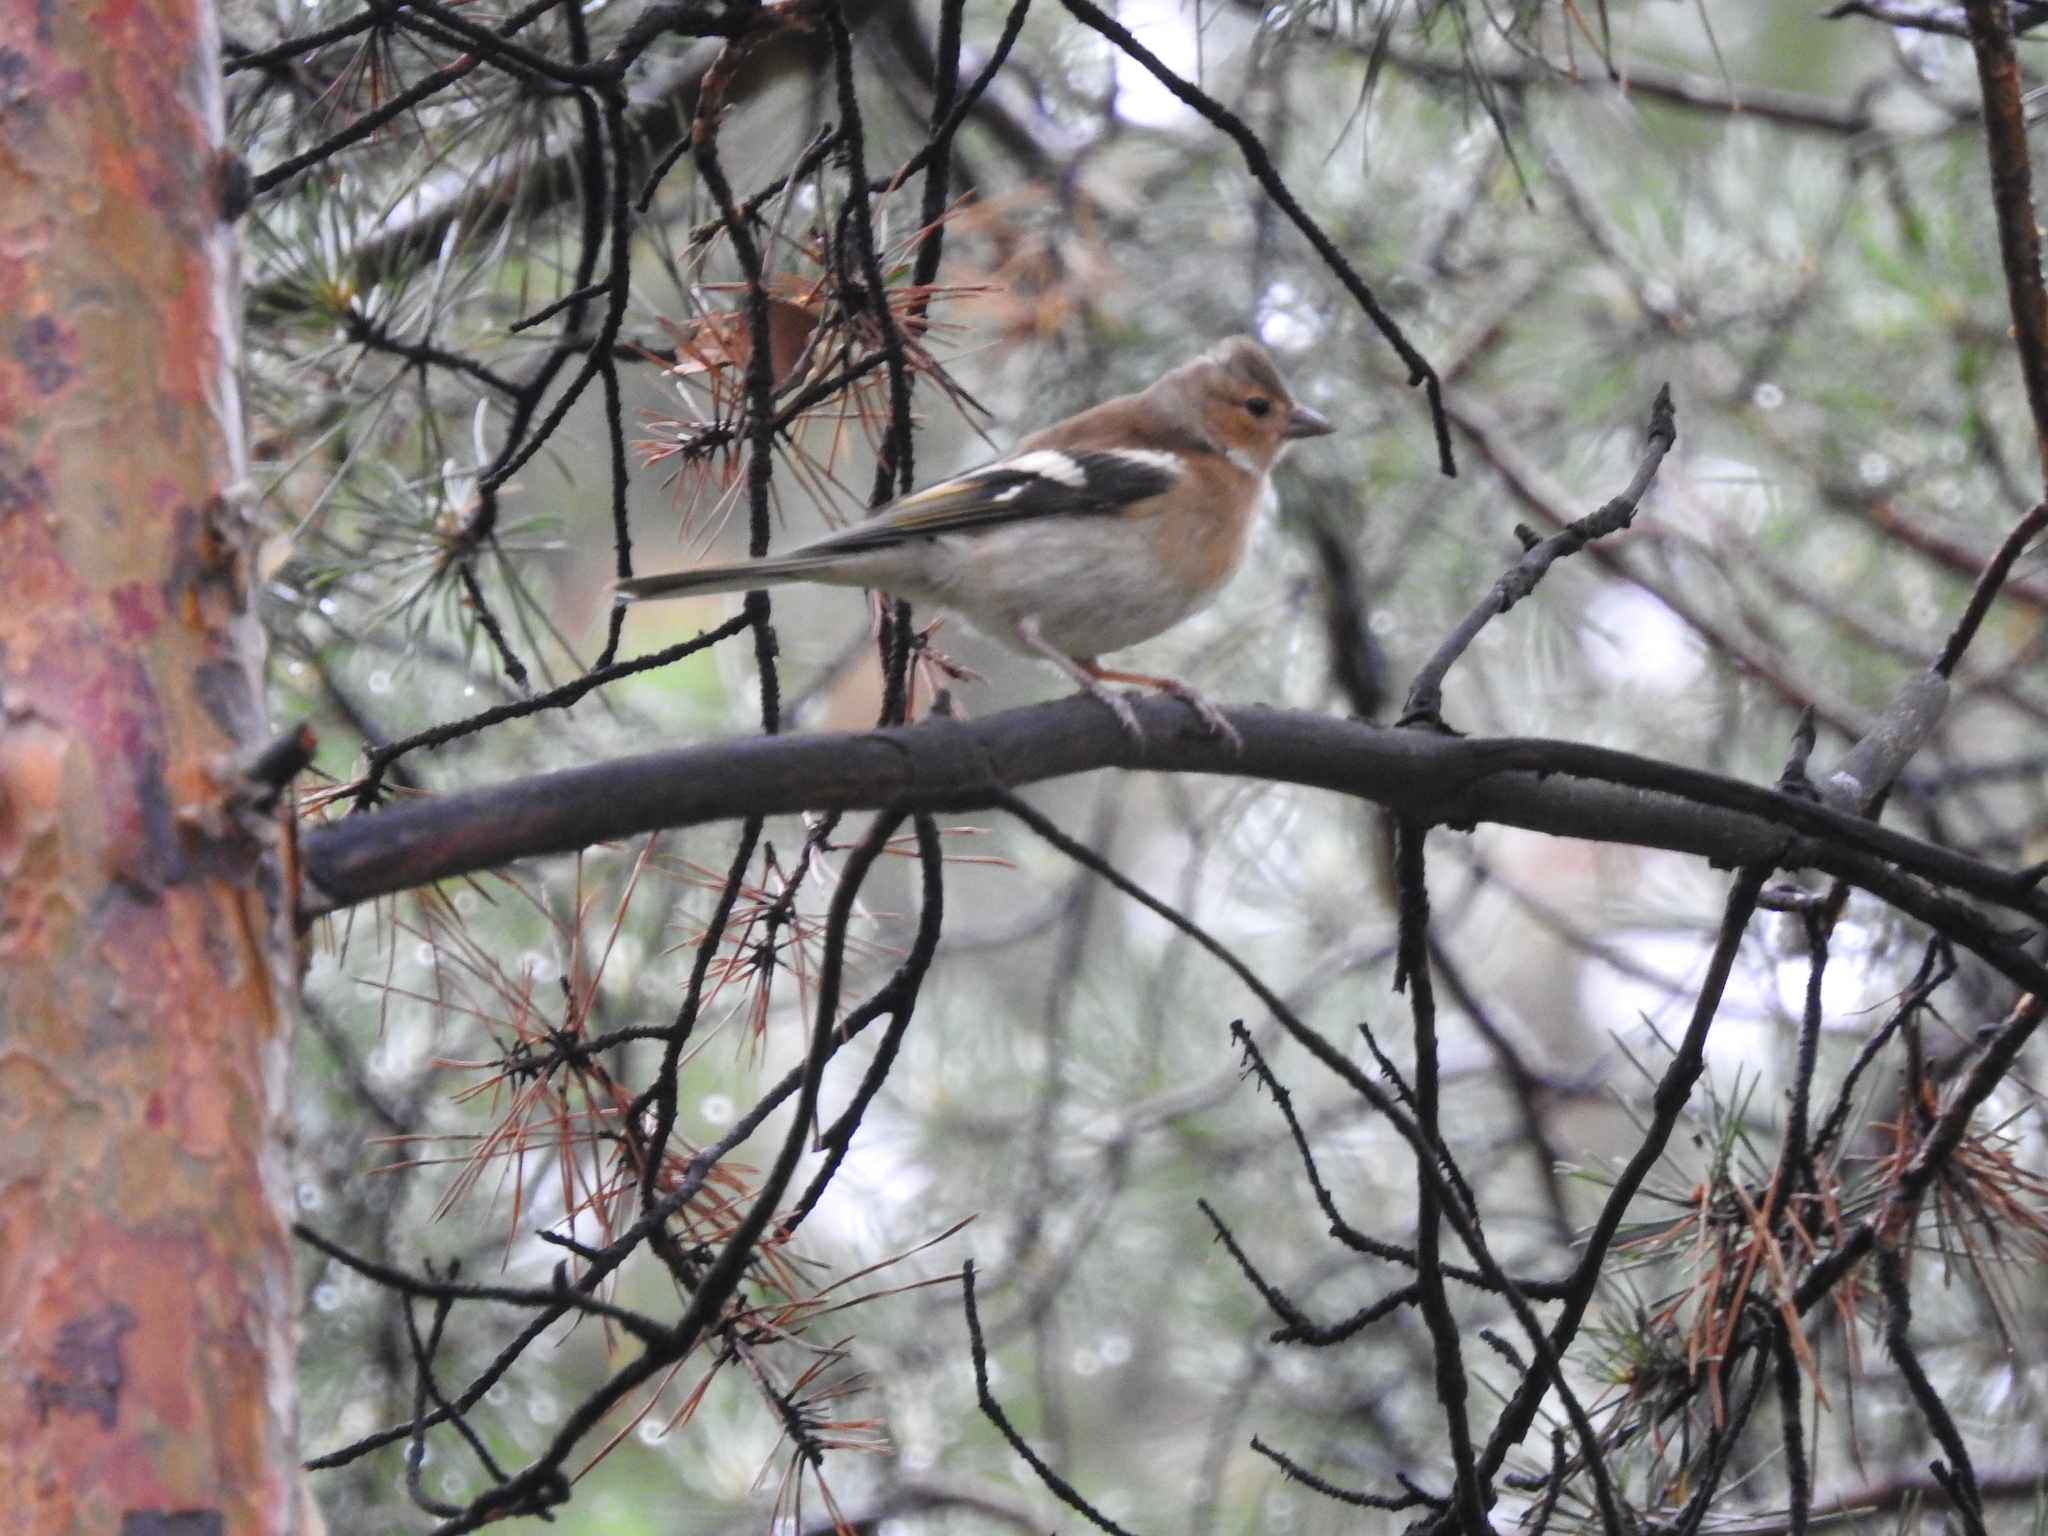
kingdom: Animalia
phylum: Chordata
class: Aves
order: Passeriformes
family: Fringillidae
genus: Fringilla
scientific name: Fringilla coelebs
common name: Common chaffinch
